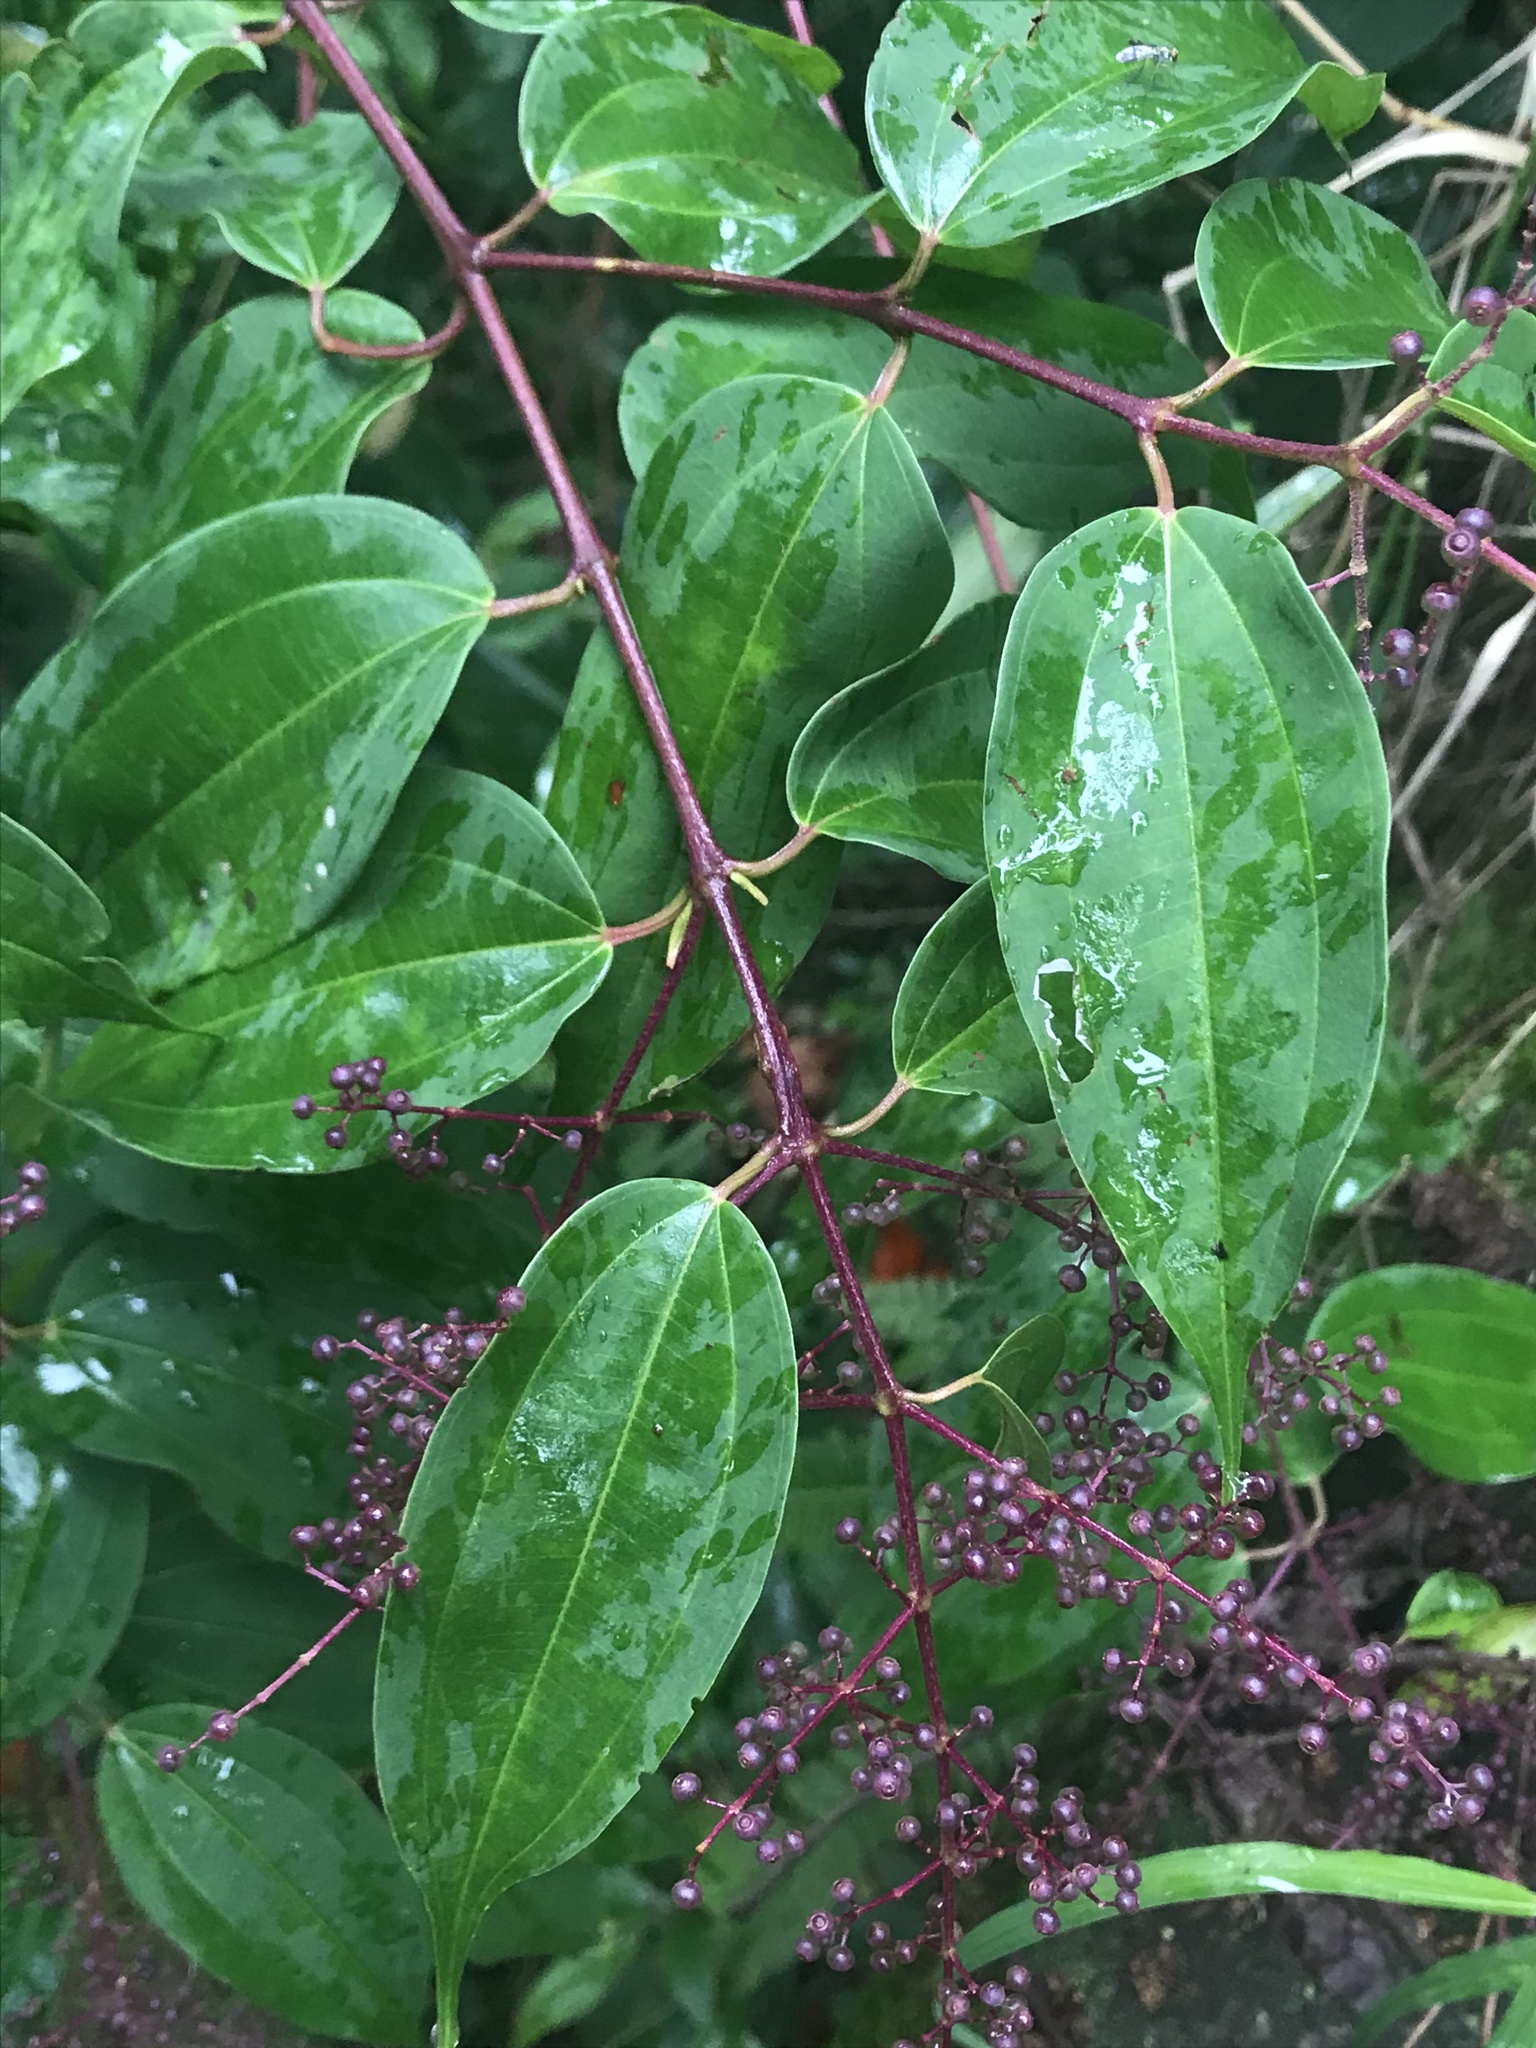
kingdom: Plantae
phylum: Tracheophyta
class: Magnoliopsida
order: Myrtales
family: Melastomataceae
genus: Miconia
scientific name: Miconia minutiflora
